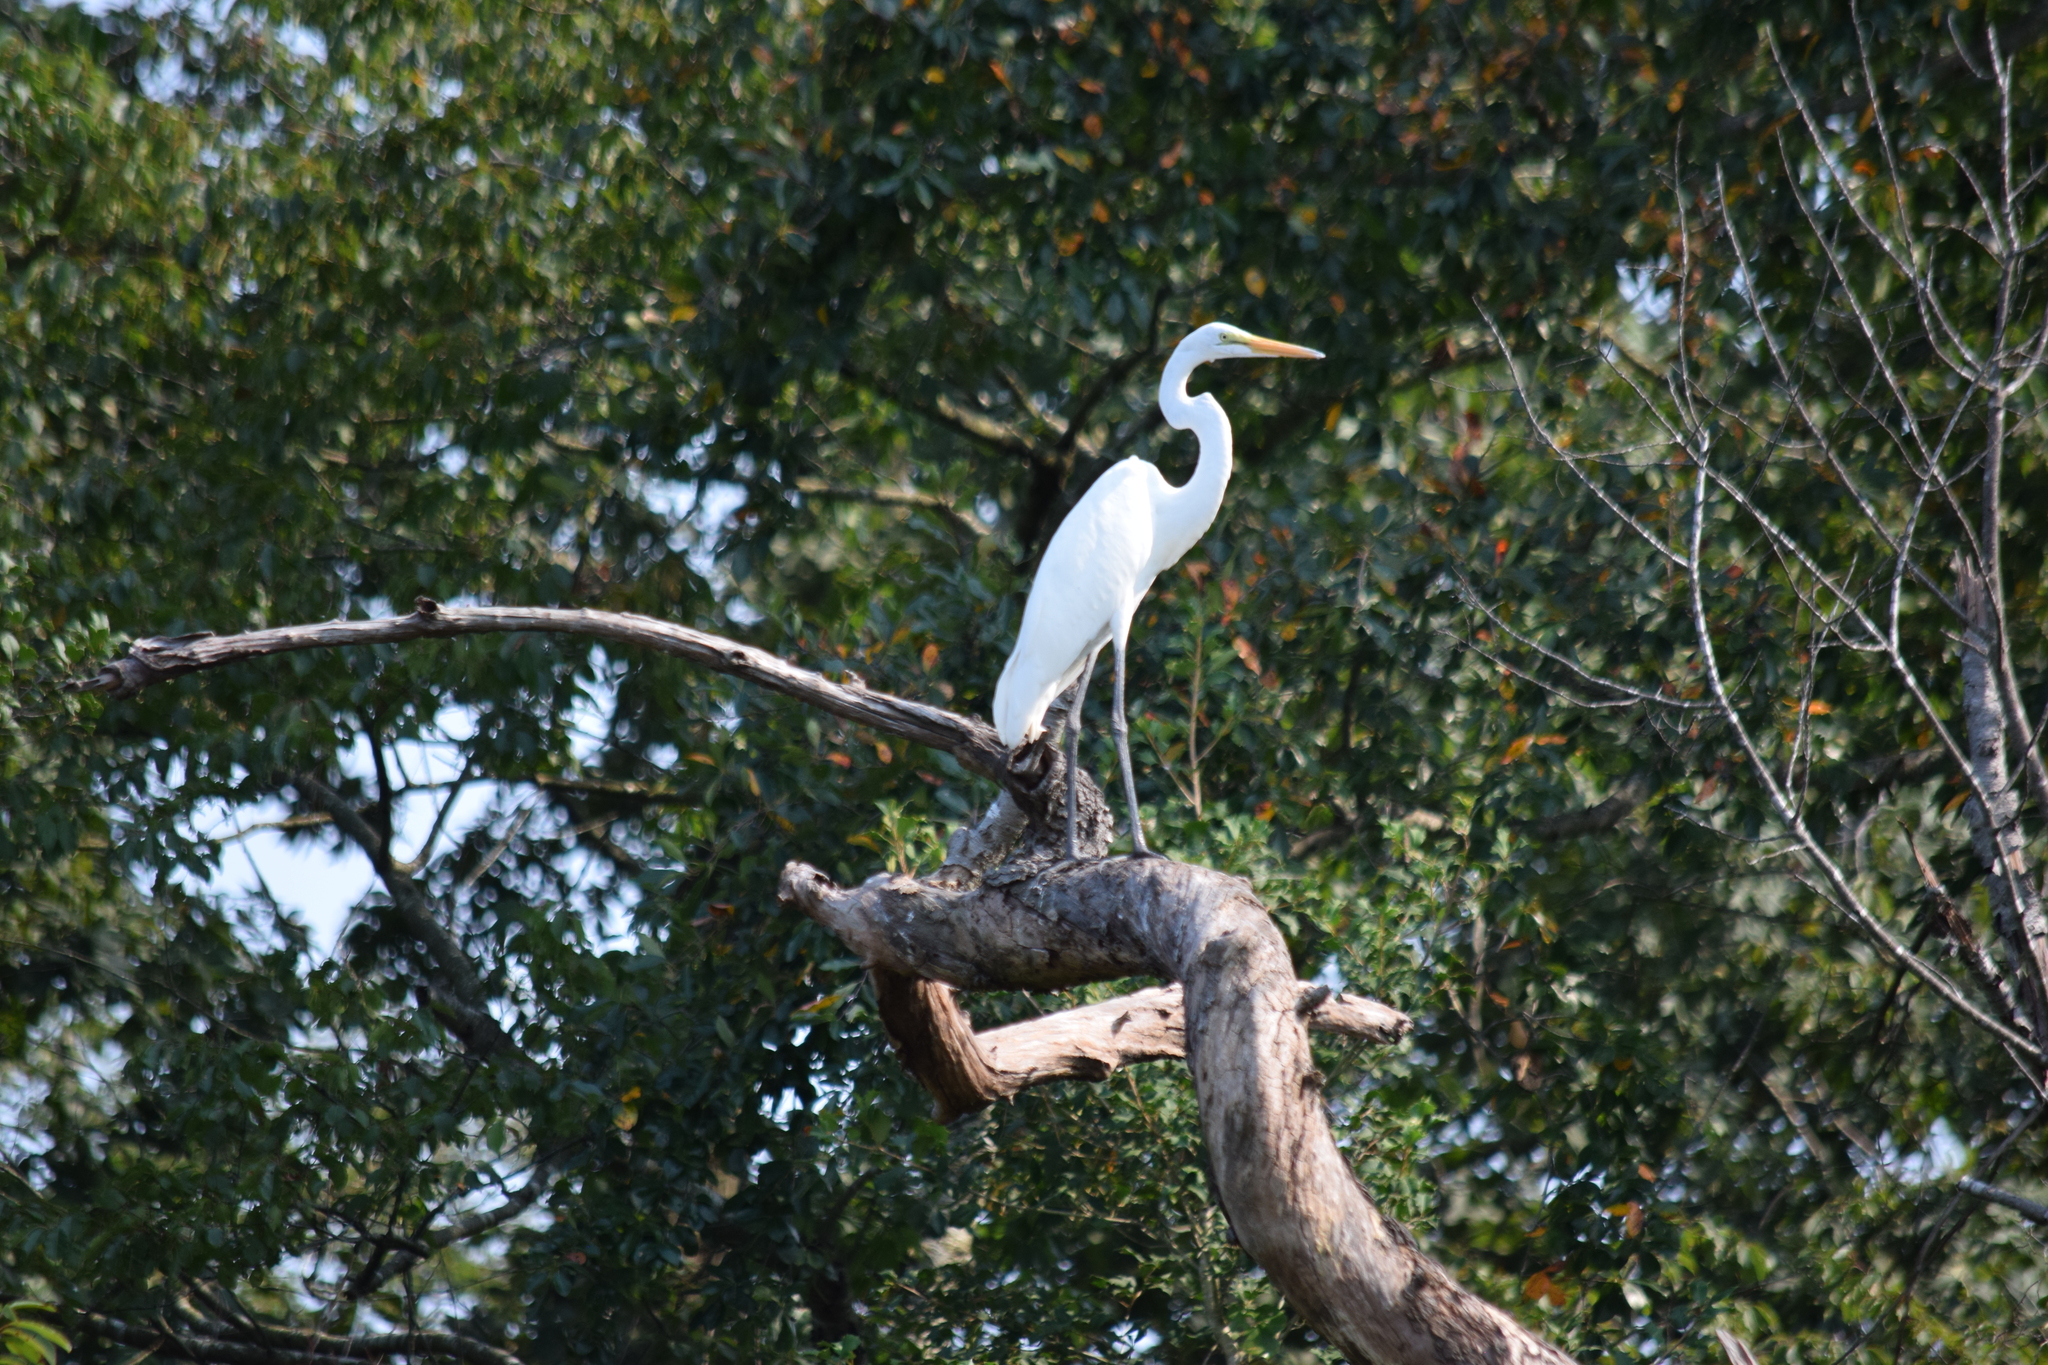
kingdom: Animalia
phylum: Chordata
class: Aves
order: Pelecaniformes
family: Ardeidae
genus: Ardea
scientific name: Ardea alba
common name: Great egret
